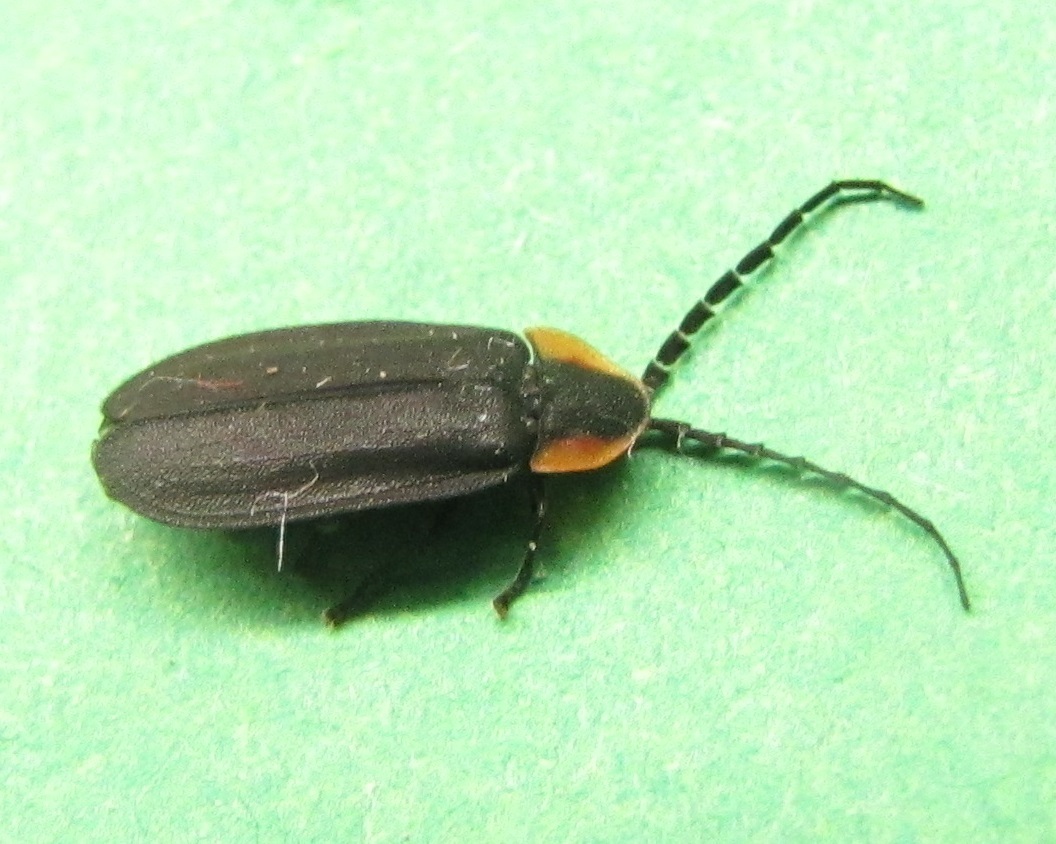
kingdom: Animalia
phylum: Arthropoda
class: Insecta
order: Coleoptera
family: Lampyridae
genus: Lucidota
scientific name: Lucidota atra
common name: Black firefly
